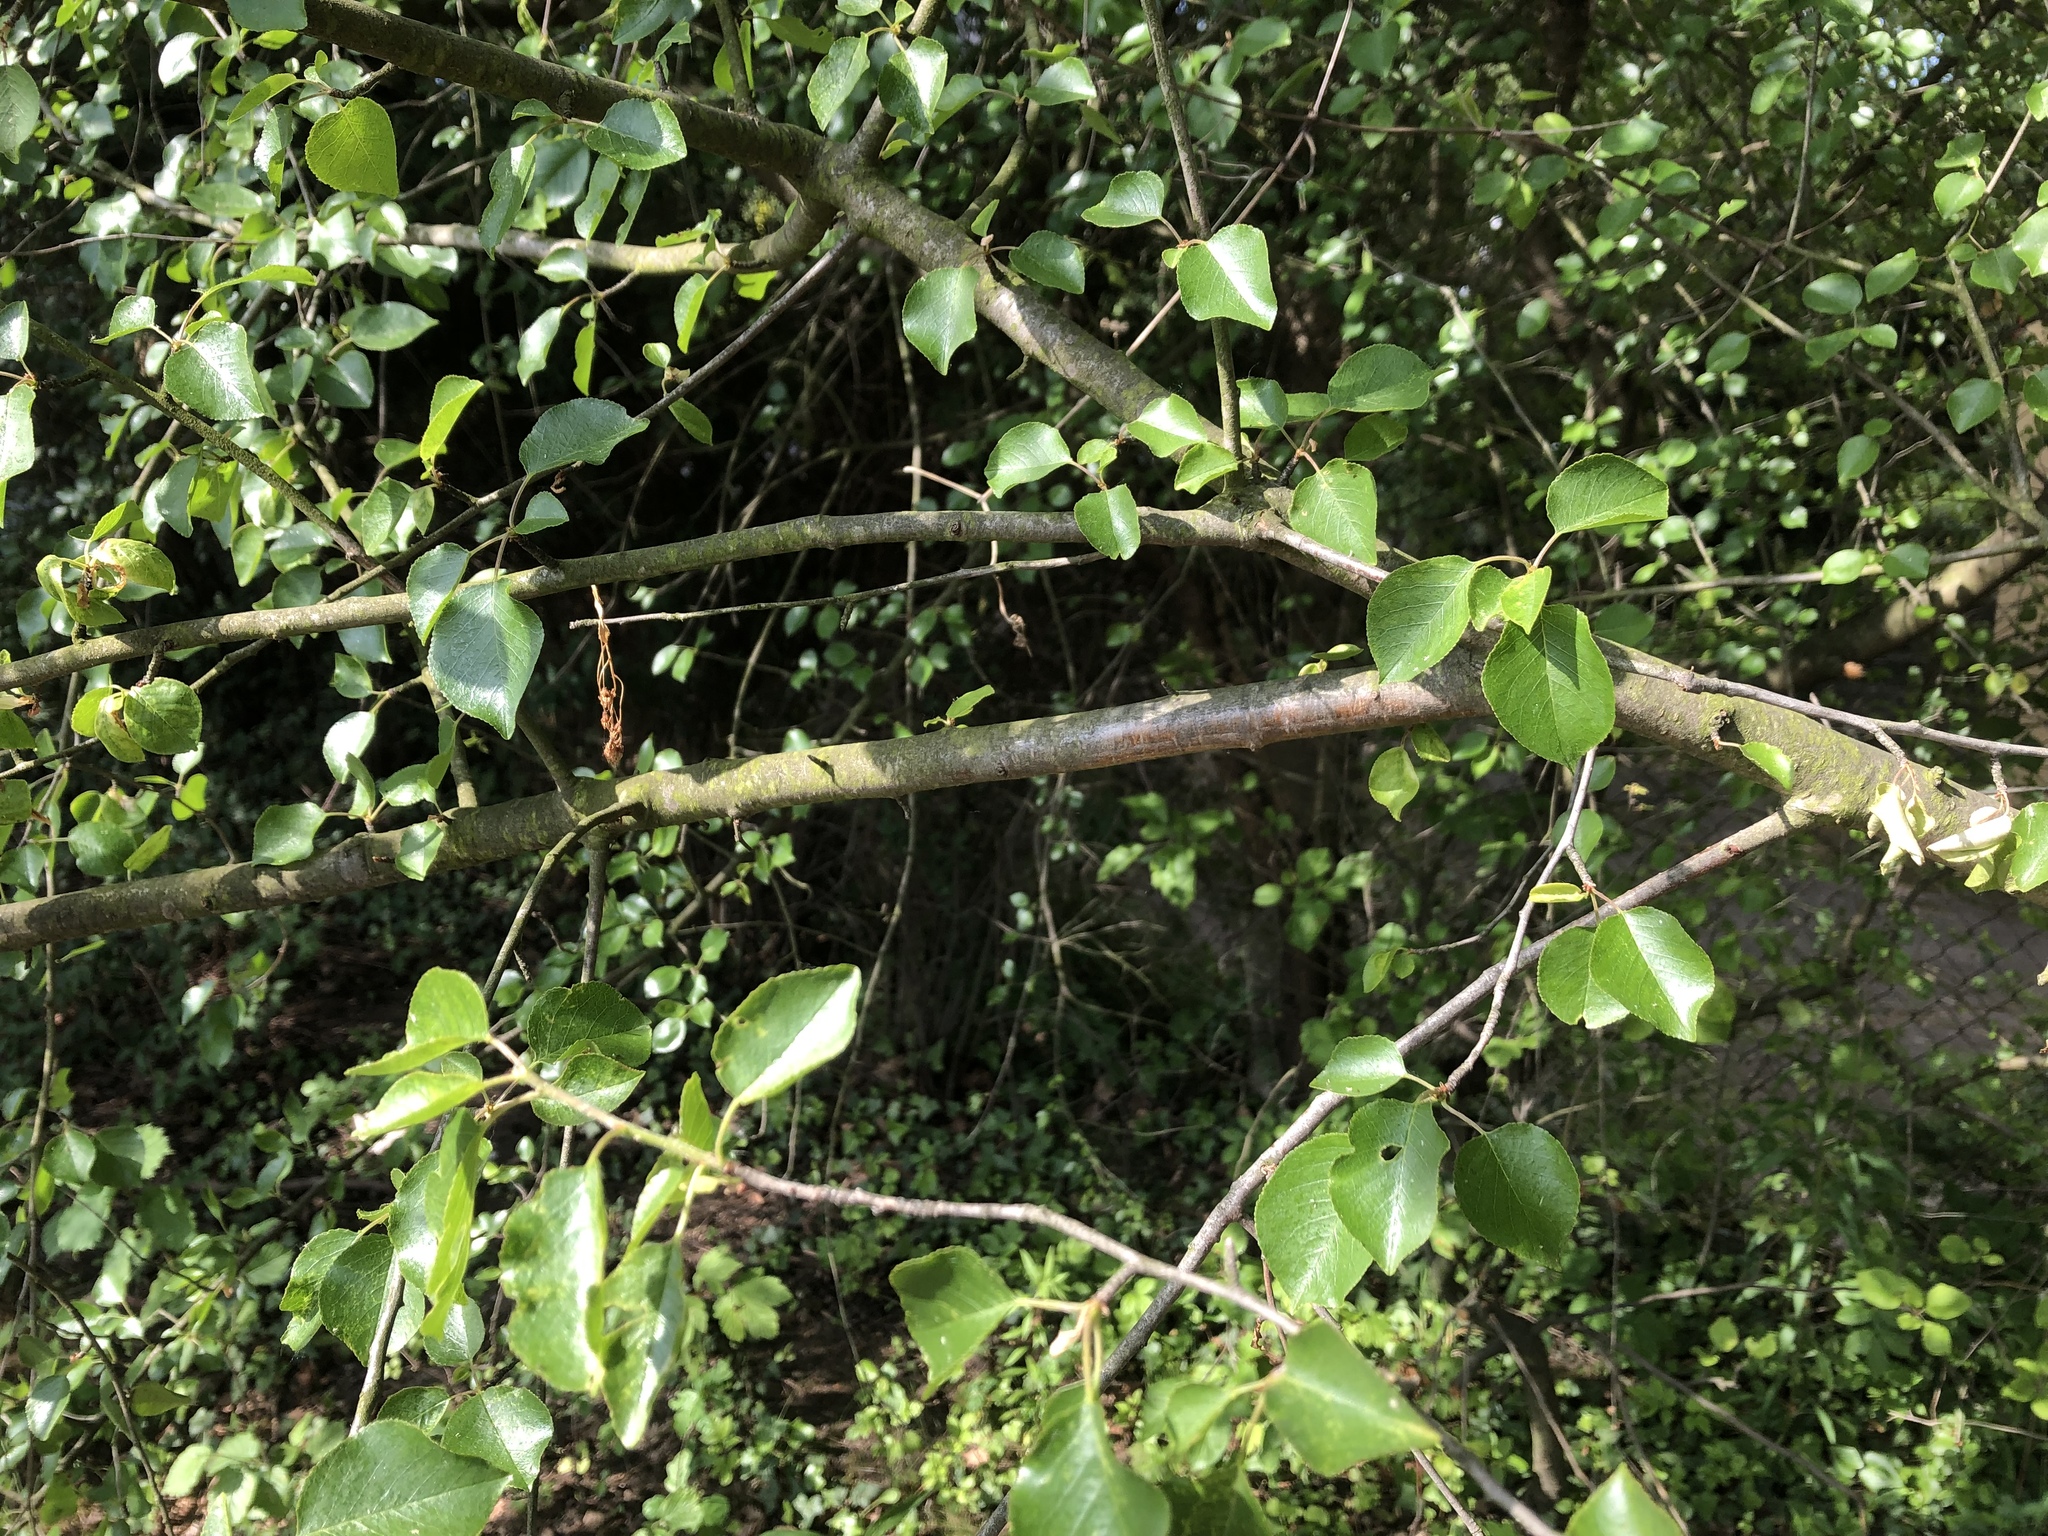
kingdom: Plantae
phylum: Tracheophyta
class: Magnoliopsida
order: Rosales
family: Rosaceae
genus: Prunus
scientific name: Prunus mahaleb
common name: Mahaleb cherry
